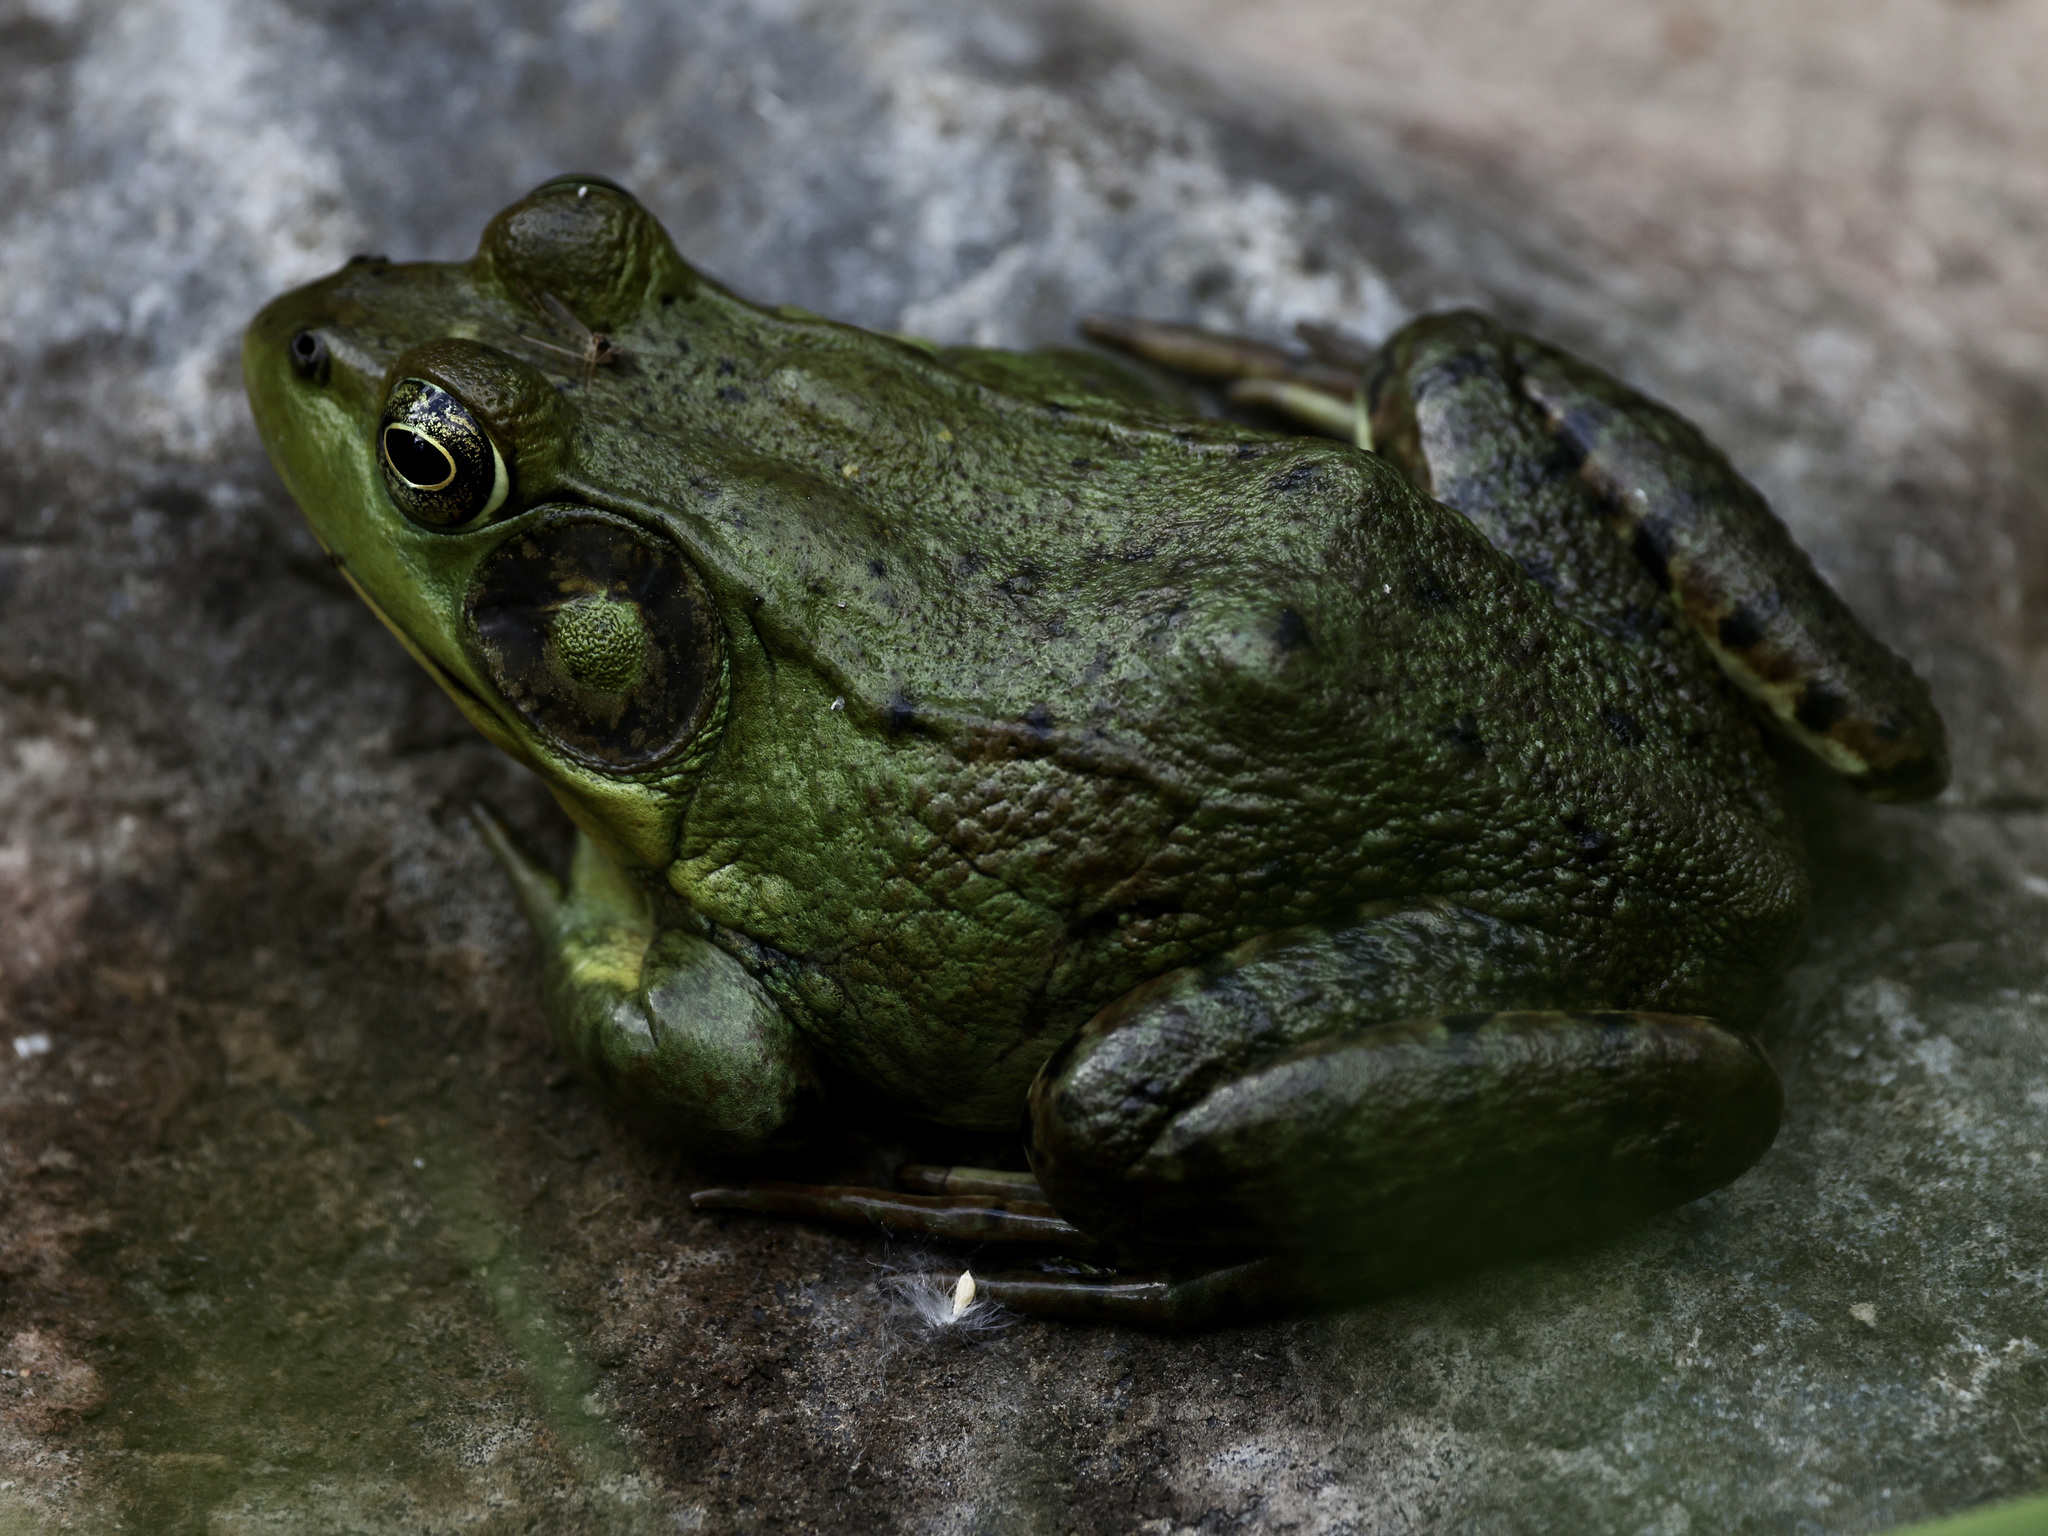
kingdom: Animalia
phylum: Chordata
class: Amphibia
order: Anura
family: Ranidae
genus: Lithobates
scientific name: Lithobates clamitans
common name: Green frog
